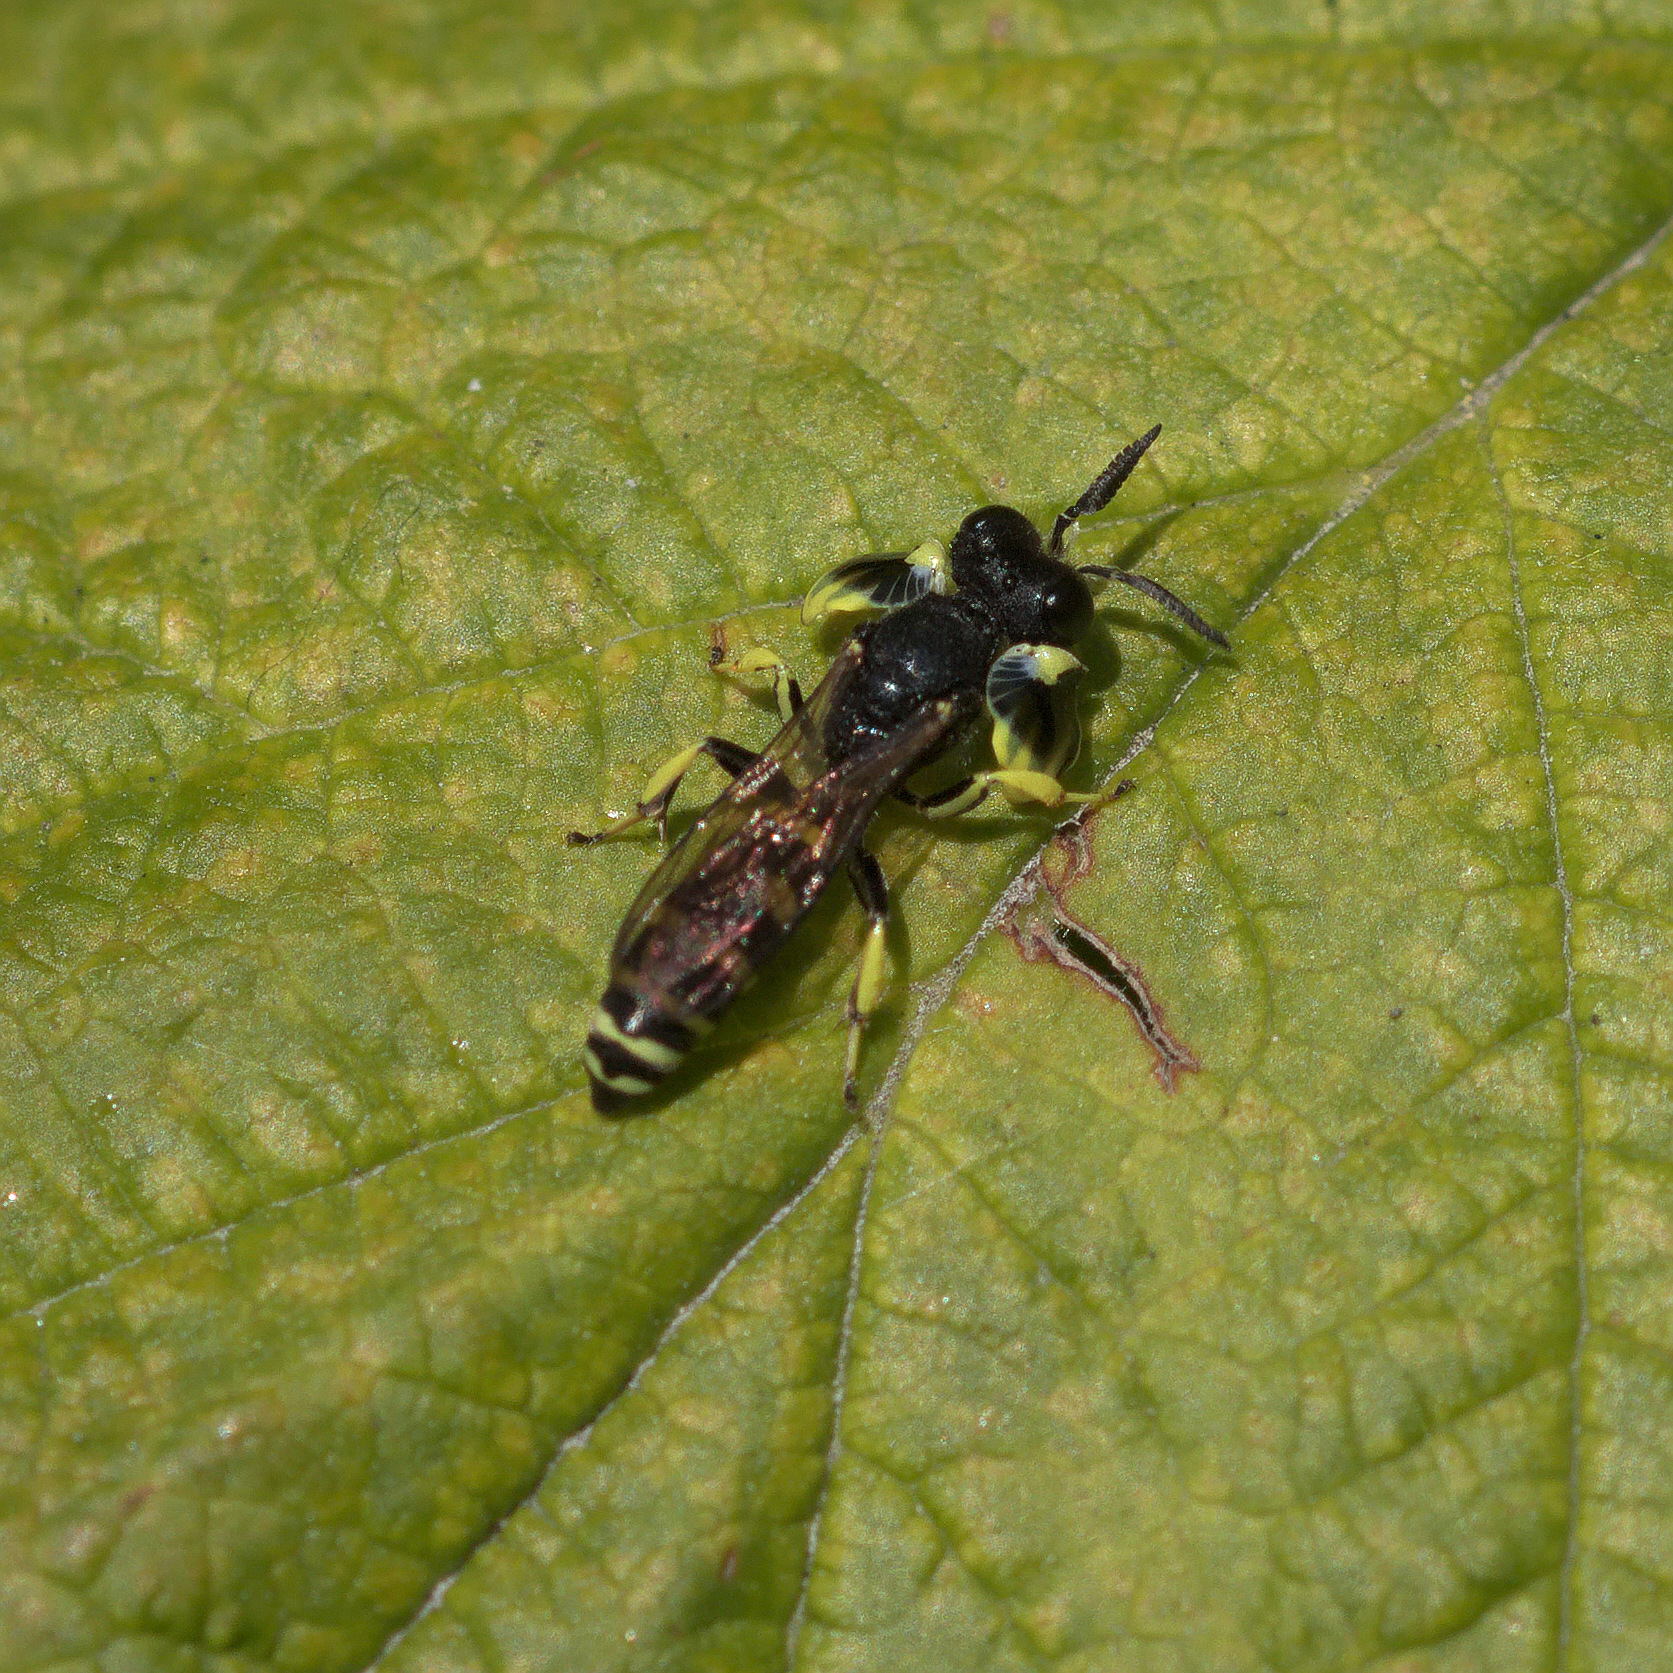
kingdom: Animalia
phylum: Arthropoda
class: Insecta
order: Hymenoptera
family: Crabronidae
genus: Crabro
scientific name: Crabro latipes
